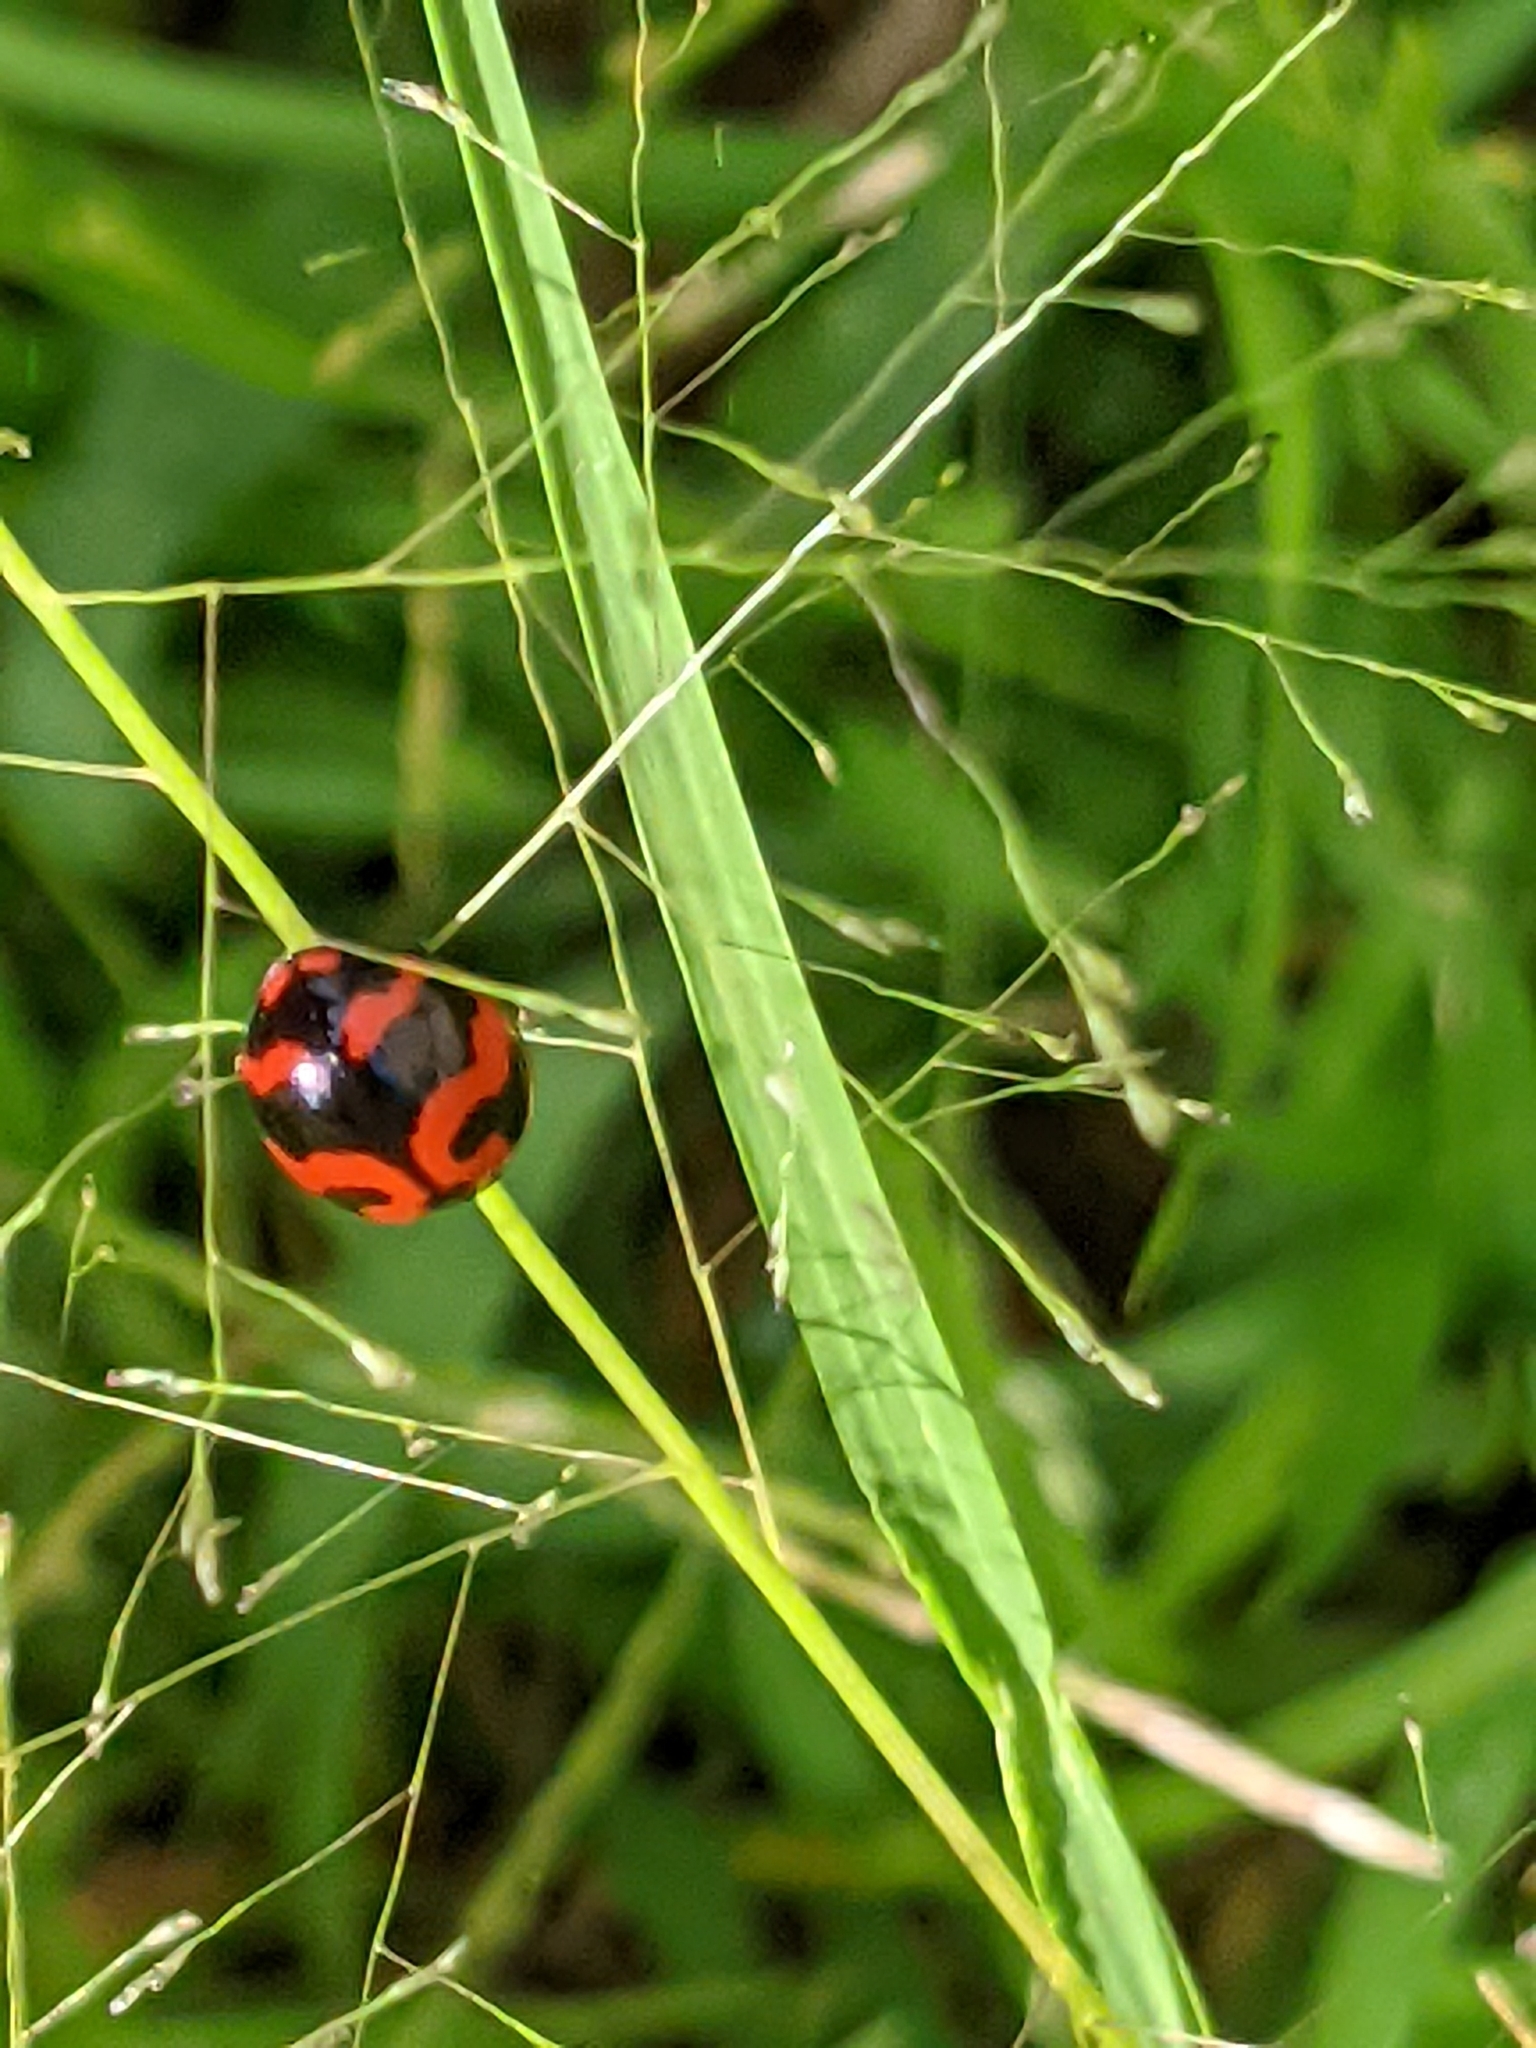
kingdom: Animalia
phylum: Arthropoda
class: Insecta
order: Coleoptera
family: Coccinellidae
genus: Coccinella
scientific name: Coccinella transversalis
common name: Transverse lady beetle
